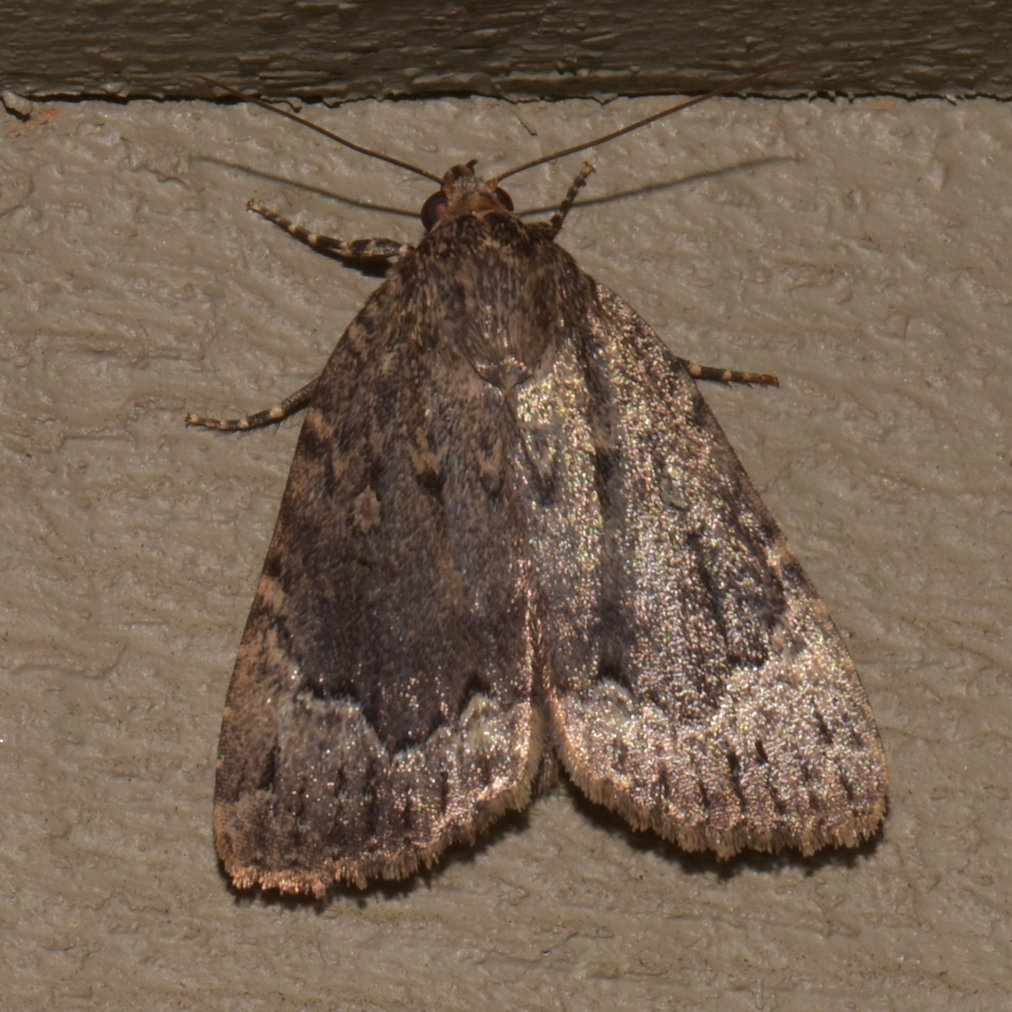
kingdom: Animalia
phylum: Arthropoda
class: Insecta
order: Lepidoptera
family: Noctuidae
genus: Amphipyra
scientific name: Amphipyra pyramidoides
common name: American copper underwing
